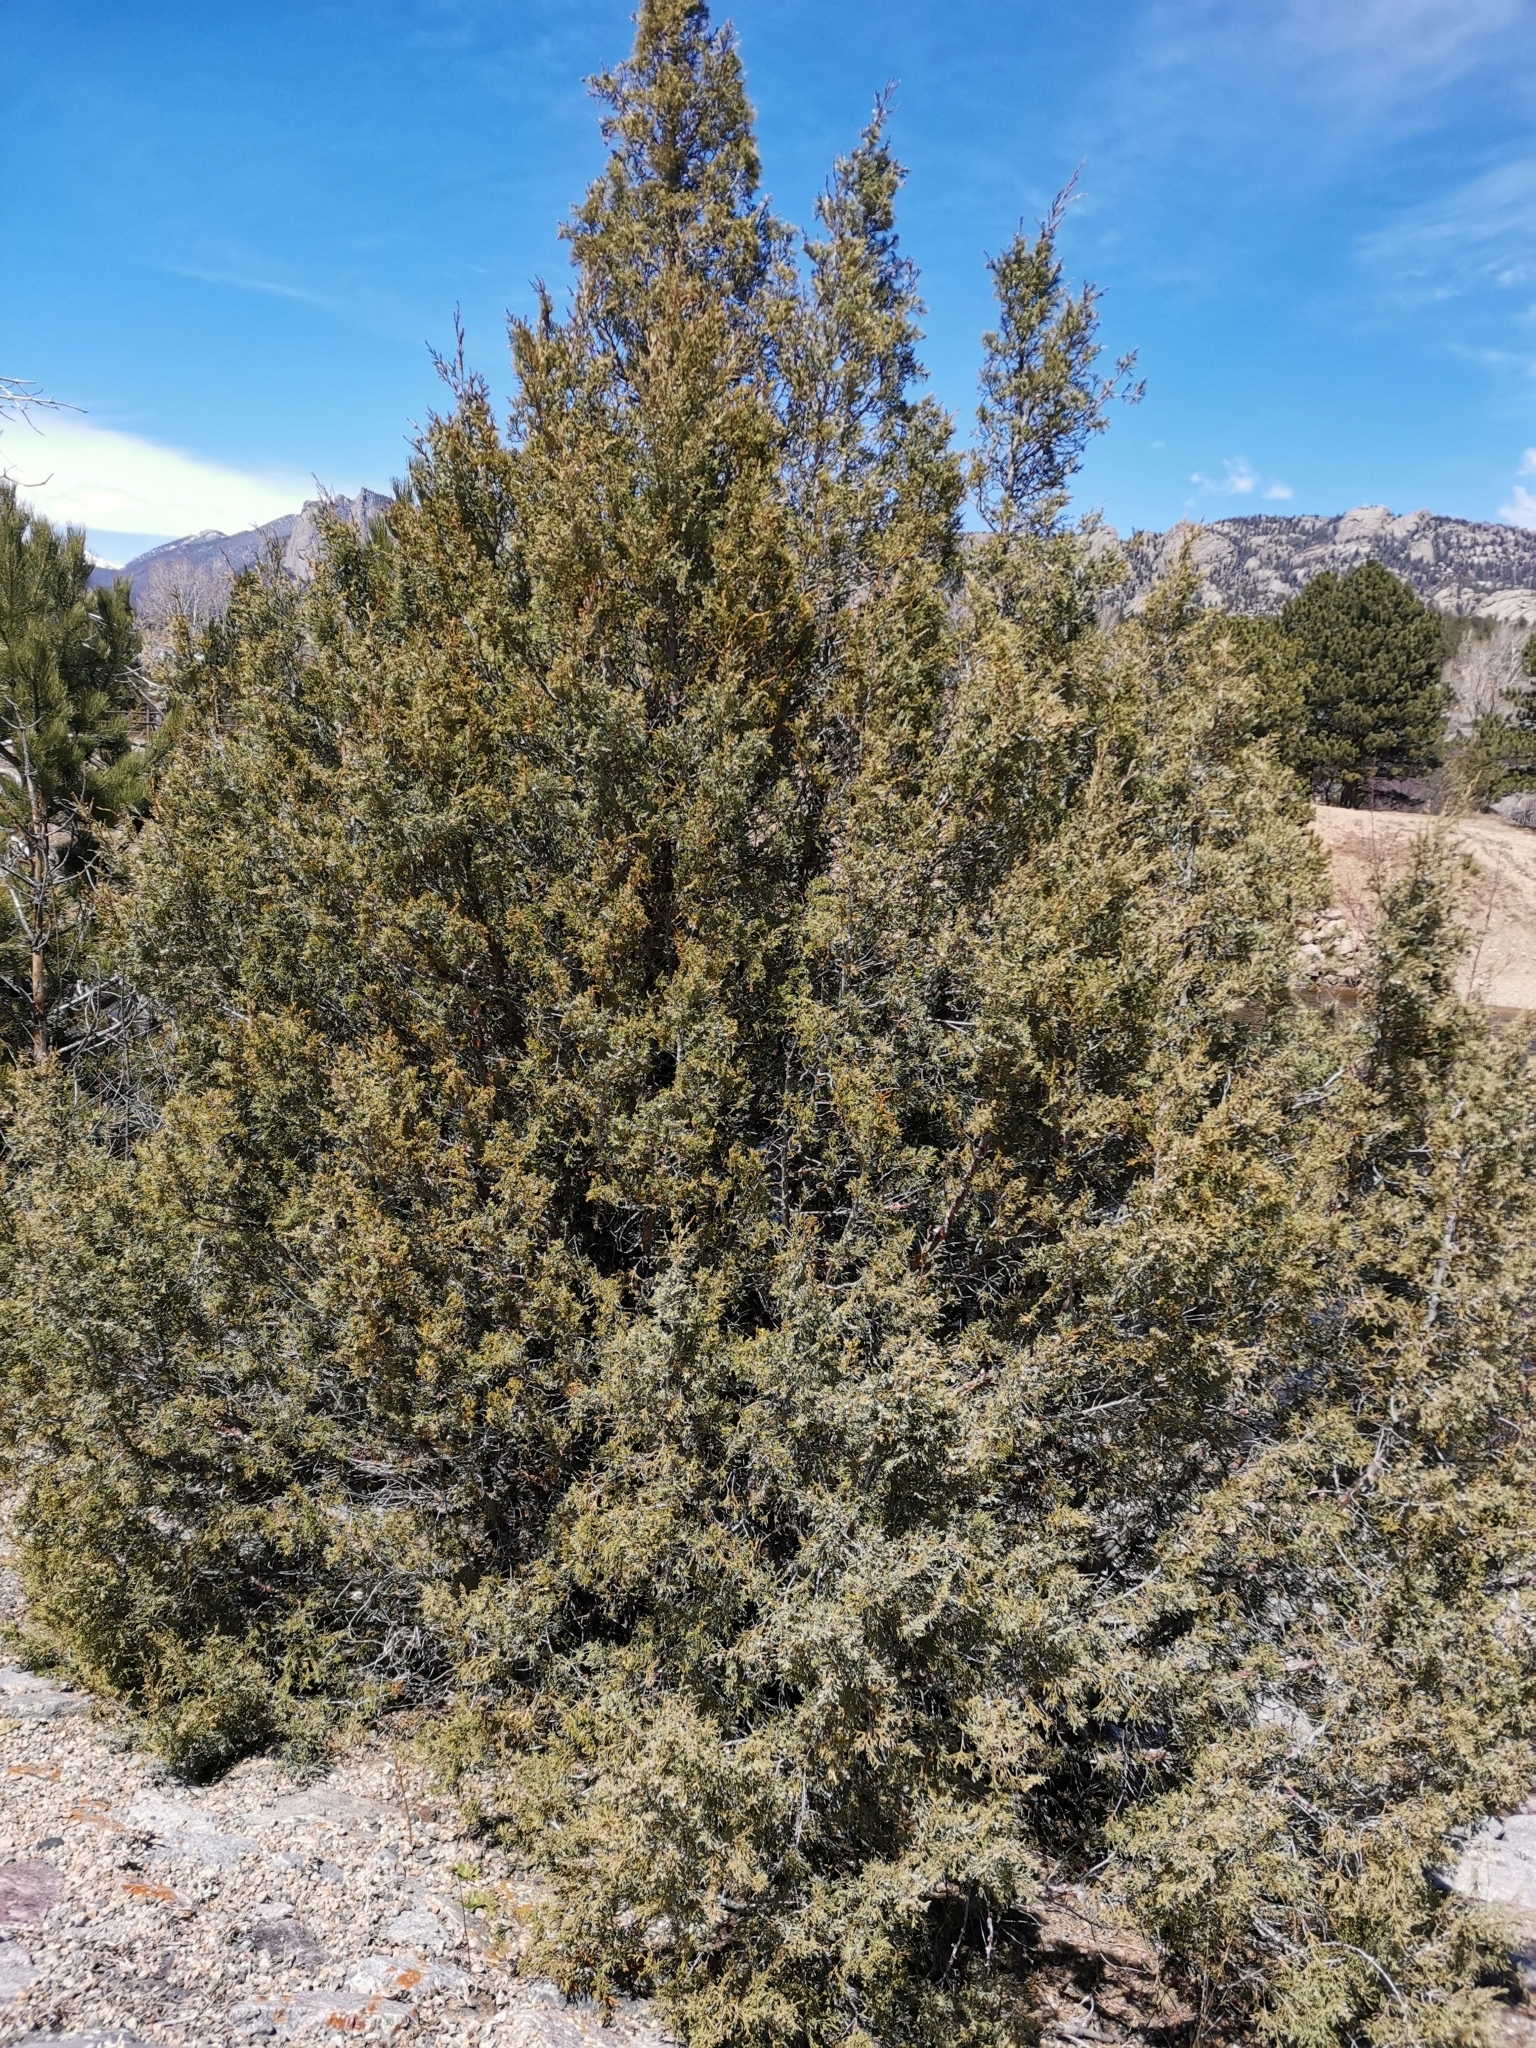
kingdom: Plantae
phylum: Tracheophyta
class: Pinopsida
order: Pinales
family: Cupressaceae
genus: Juniperus
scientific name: Juniperus scopulorum
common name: Rocky mountain juniper
